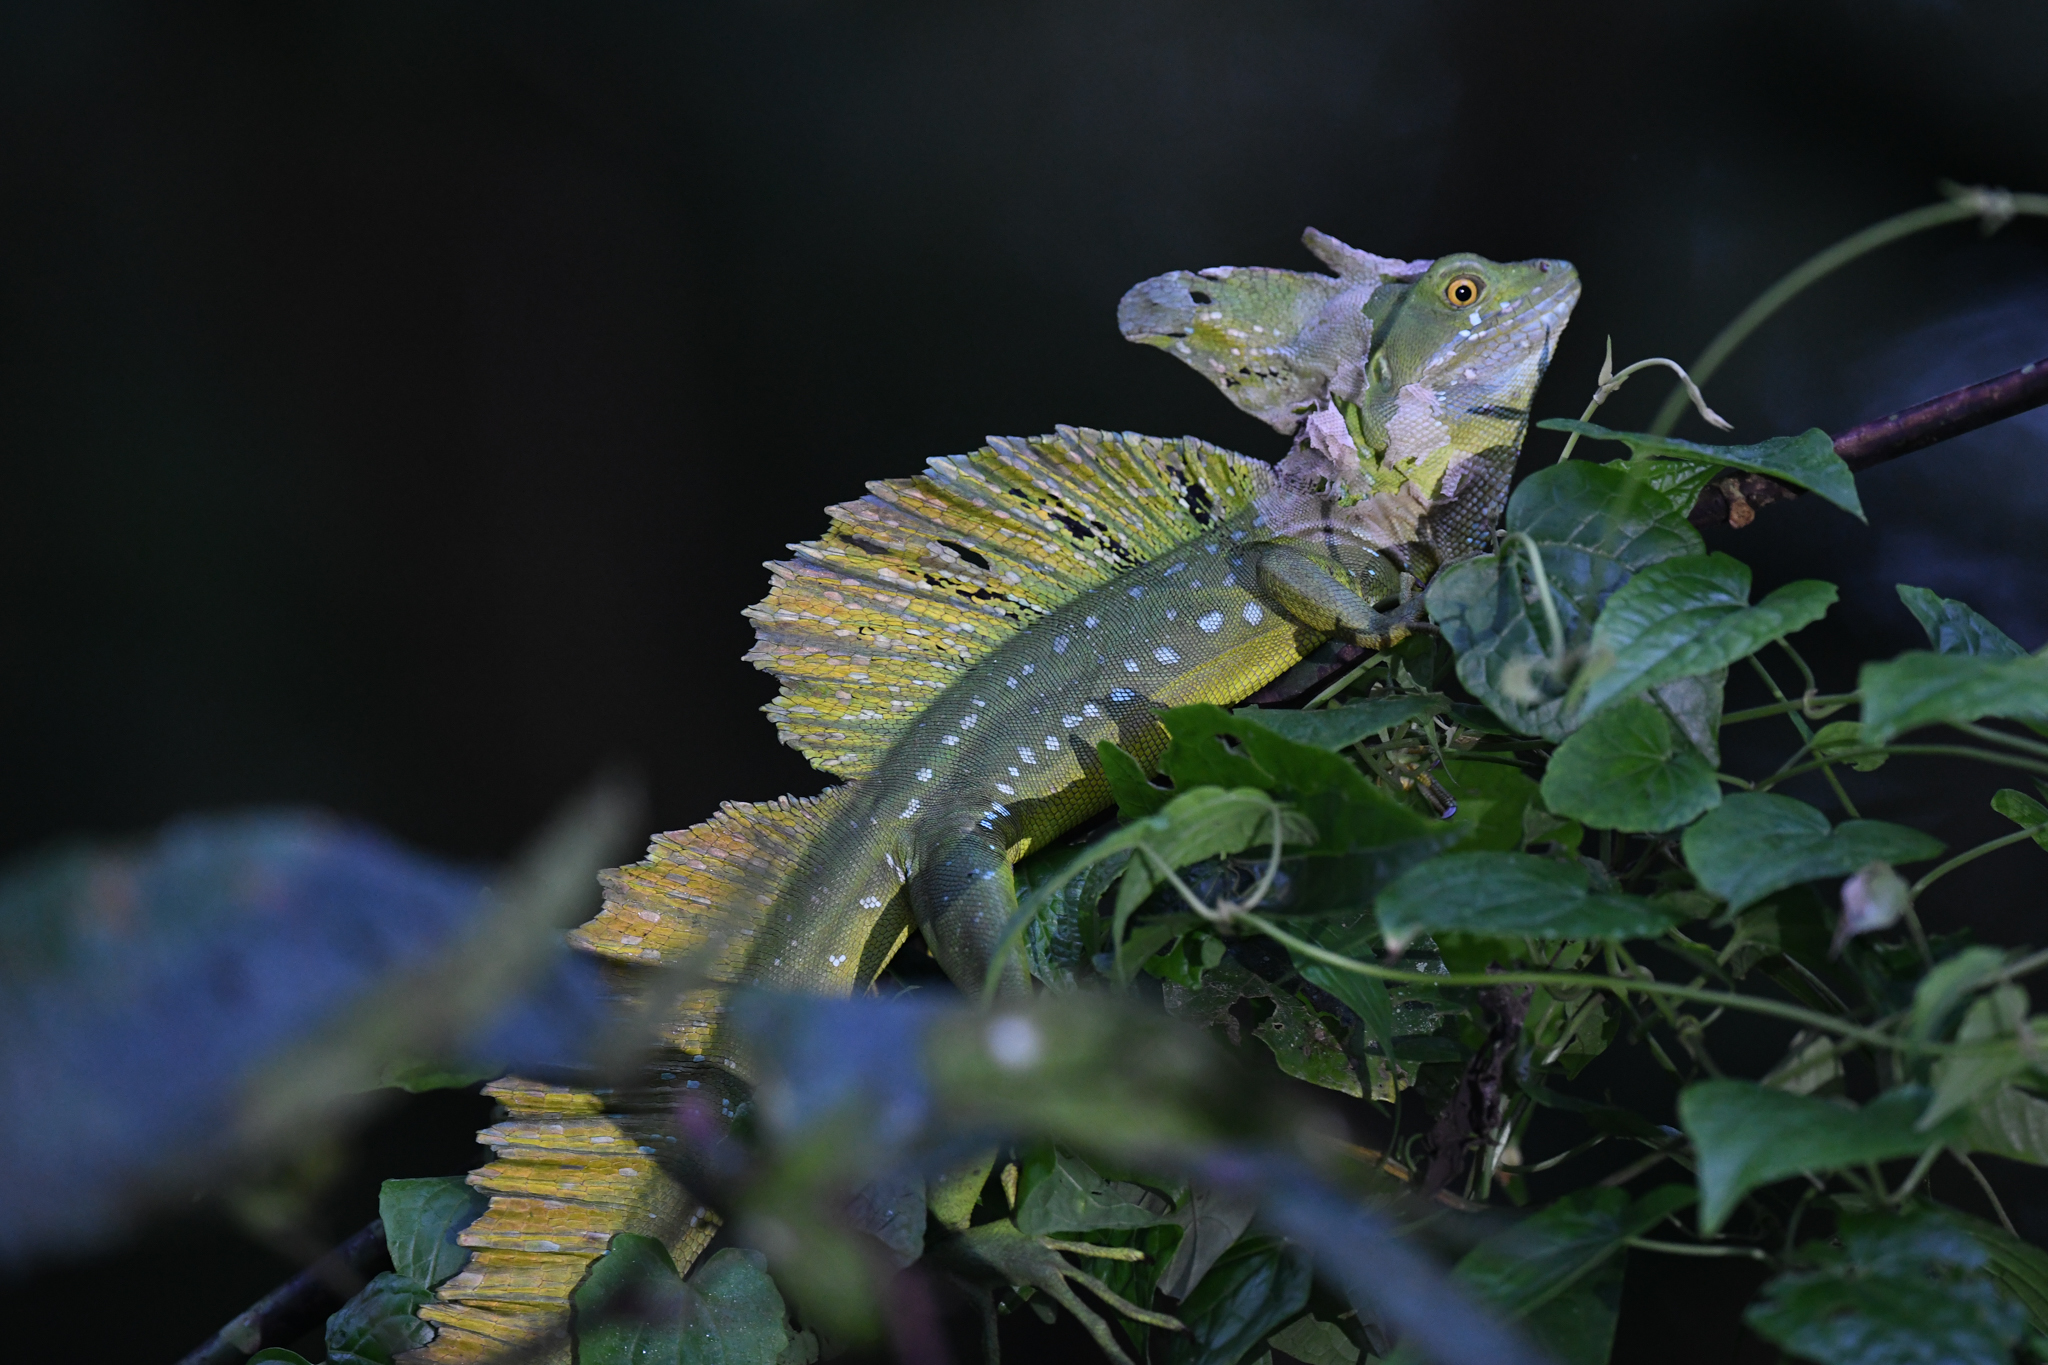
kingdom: Animalia
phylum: Chordata
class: Squamata
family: Corytophanidae
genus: Basiliscus
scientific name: Basiliscus plumifrons
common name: Green basilisk
